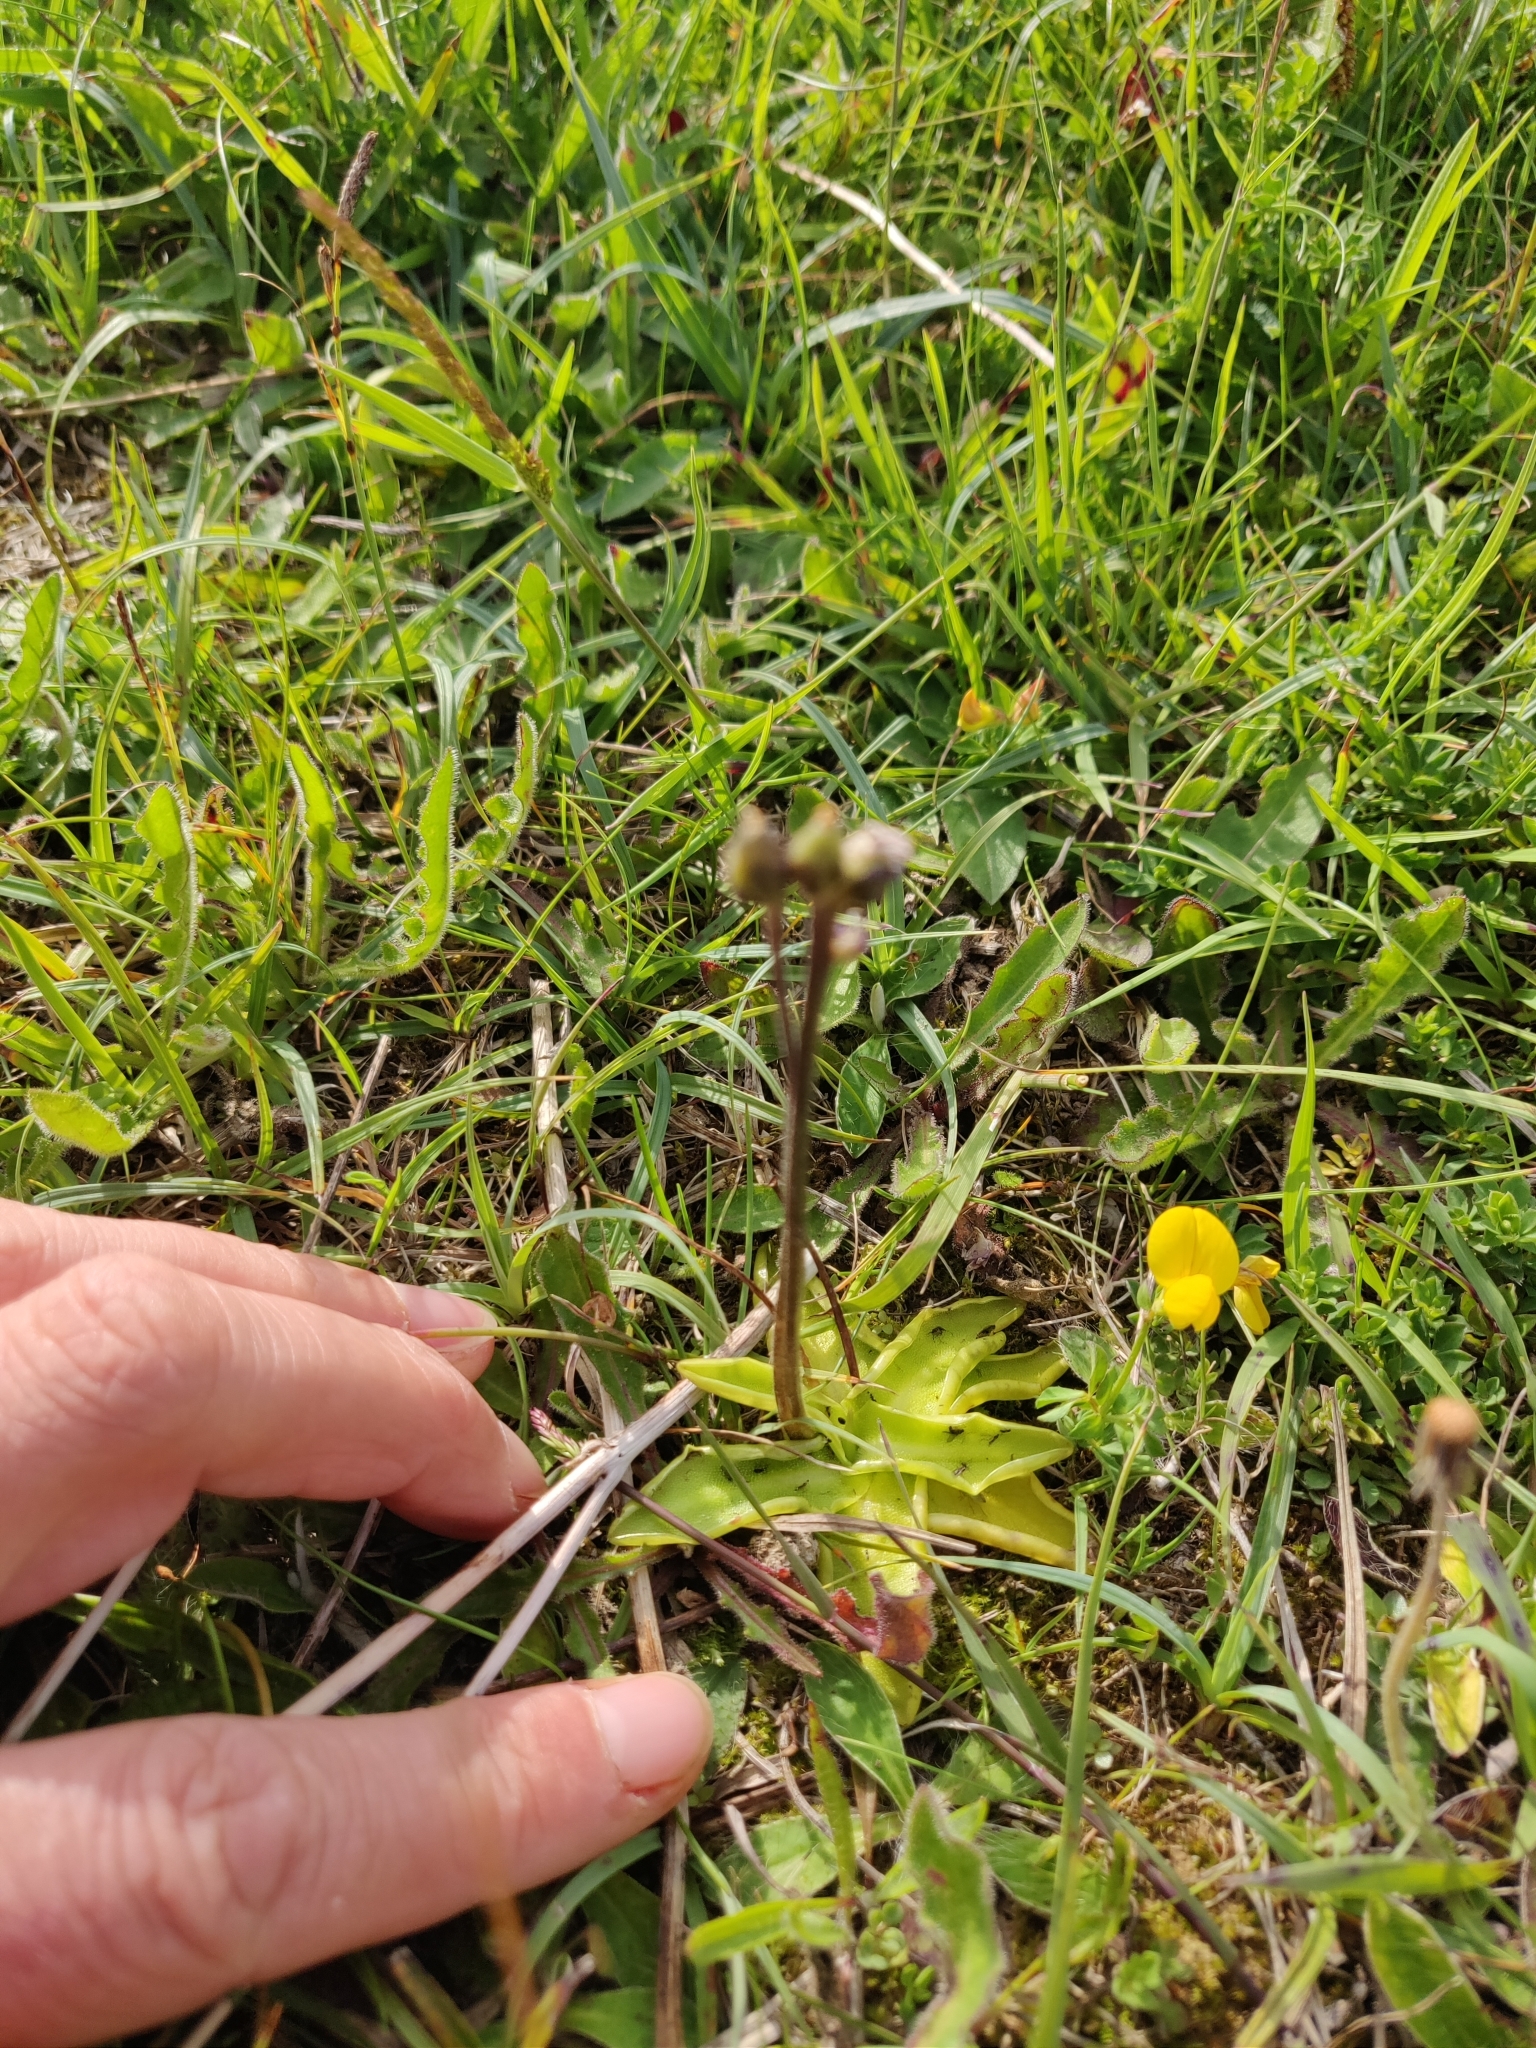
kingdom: Plantae
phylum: Tracheophyta
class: Magnoliopsida
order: Lamiales
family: Lentibulariaceae
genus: Pinguicula
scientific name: Pinguicula vulgaris
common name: Common butterwort
